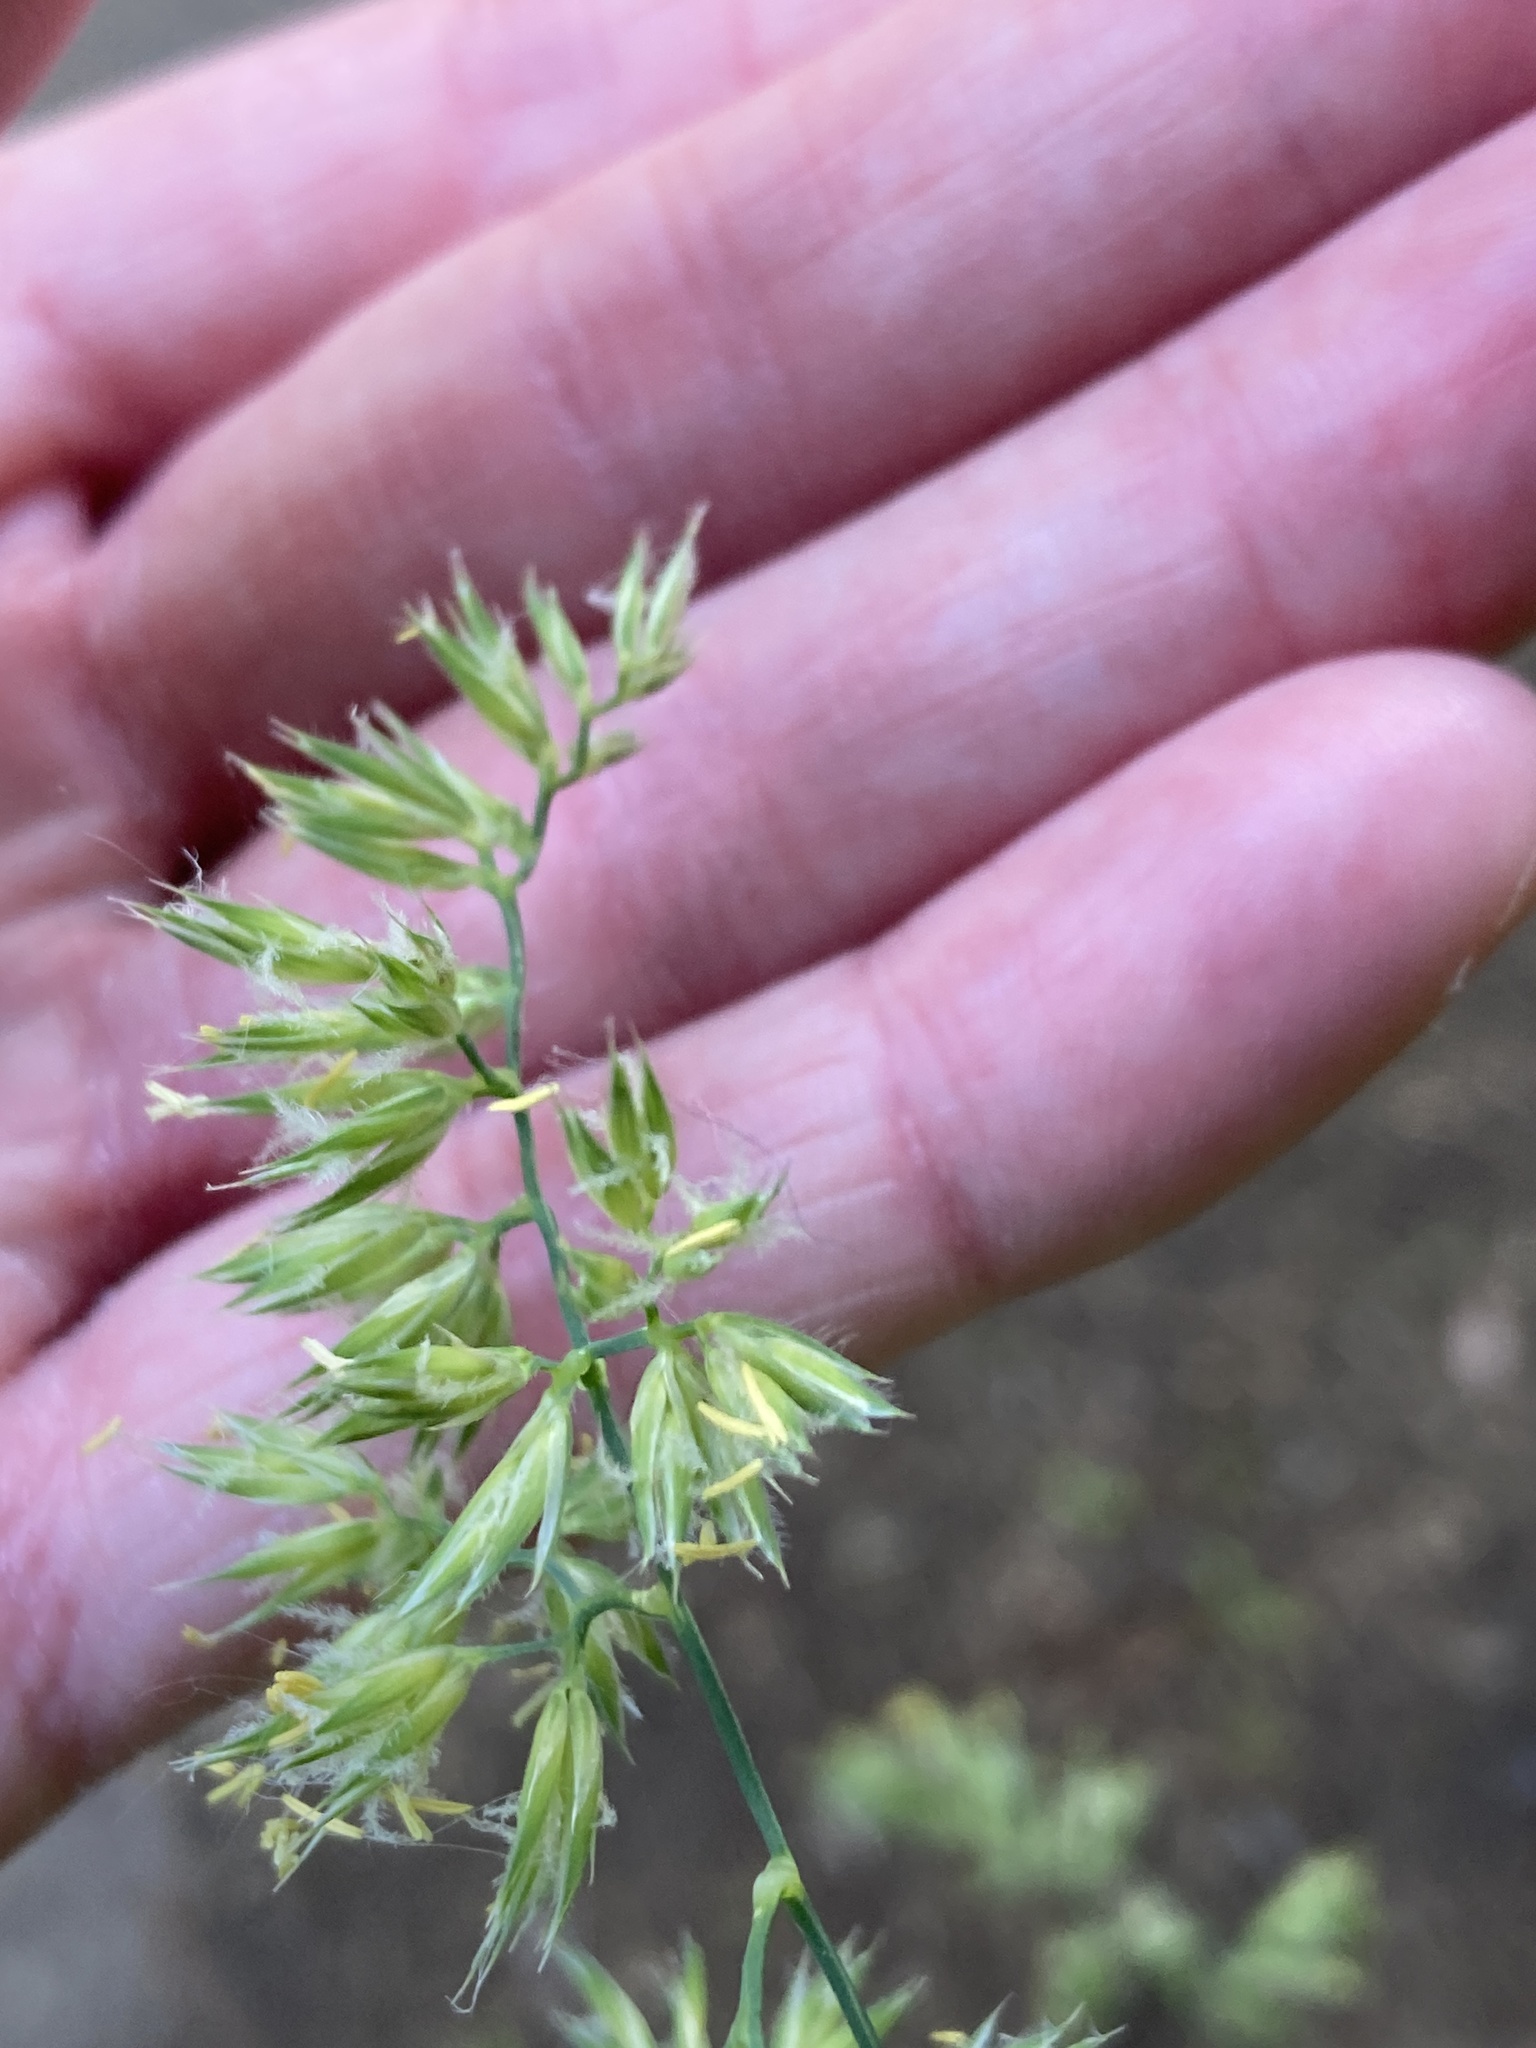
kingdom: Plantae
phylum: Tracheophyta
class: Liliopsida
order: Poales
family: Poaceae
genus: Dactylis
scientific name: Dactylis glomerata
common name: Orchardgrass
